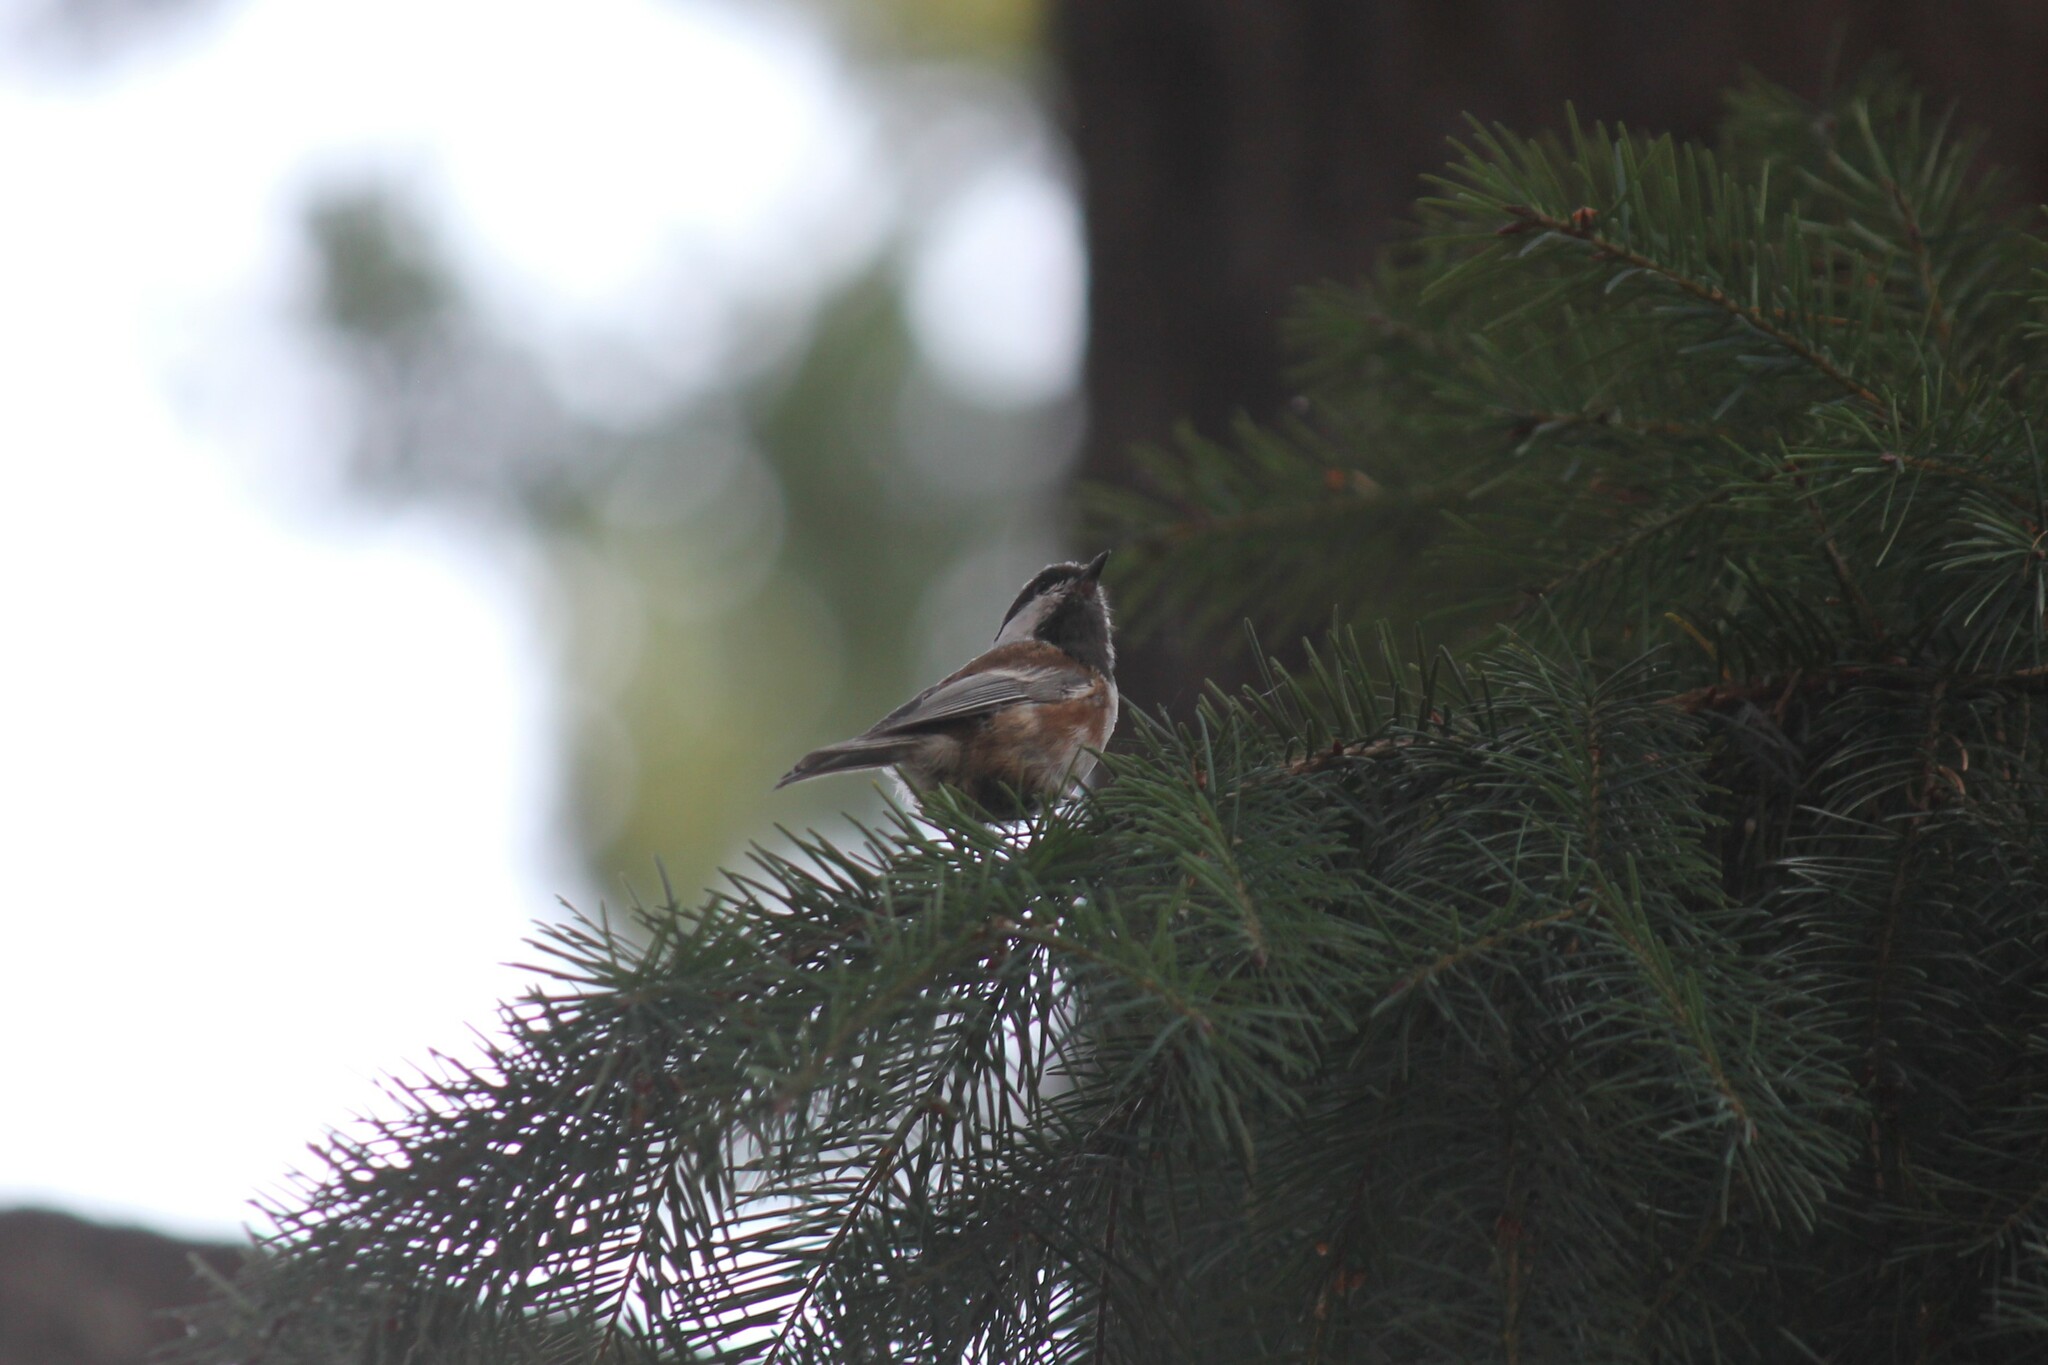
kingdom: Animalia
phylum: Chordata
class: Aves
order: Passeriformes
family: Paridae
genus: Poecile
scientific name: Poecile rufescens
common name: Chestnut-backed chickadee
